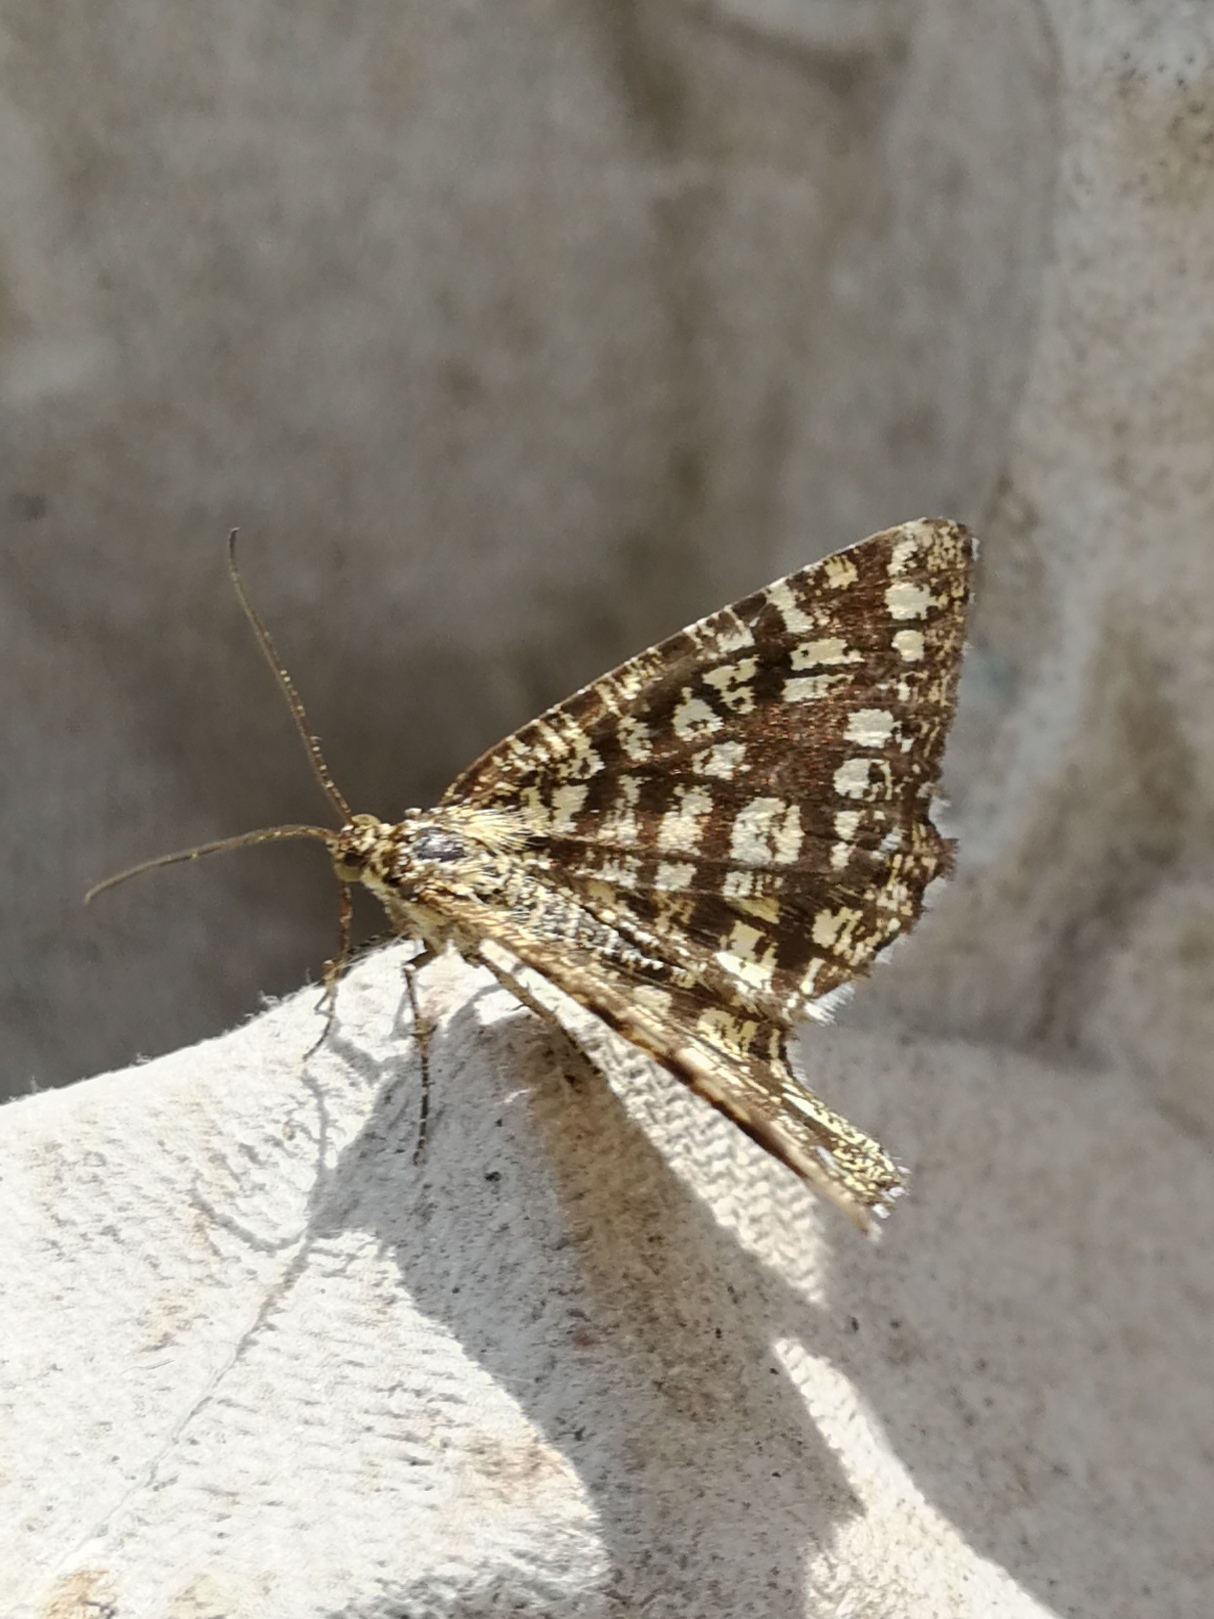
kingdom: Animalia
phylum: Arthropoda
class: Insecta
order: Lepidoptera
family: Geometridae
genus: Chiasmia
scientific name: Chiasmia clathrata
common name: Latticed heath
